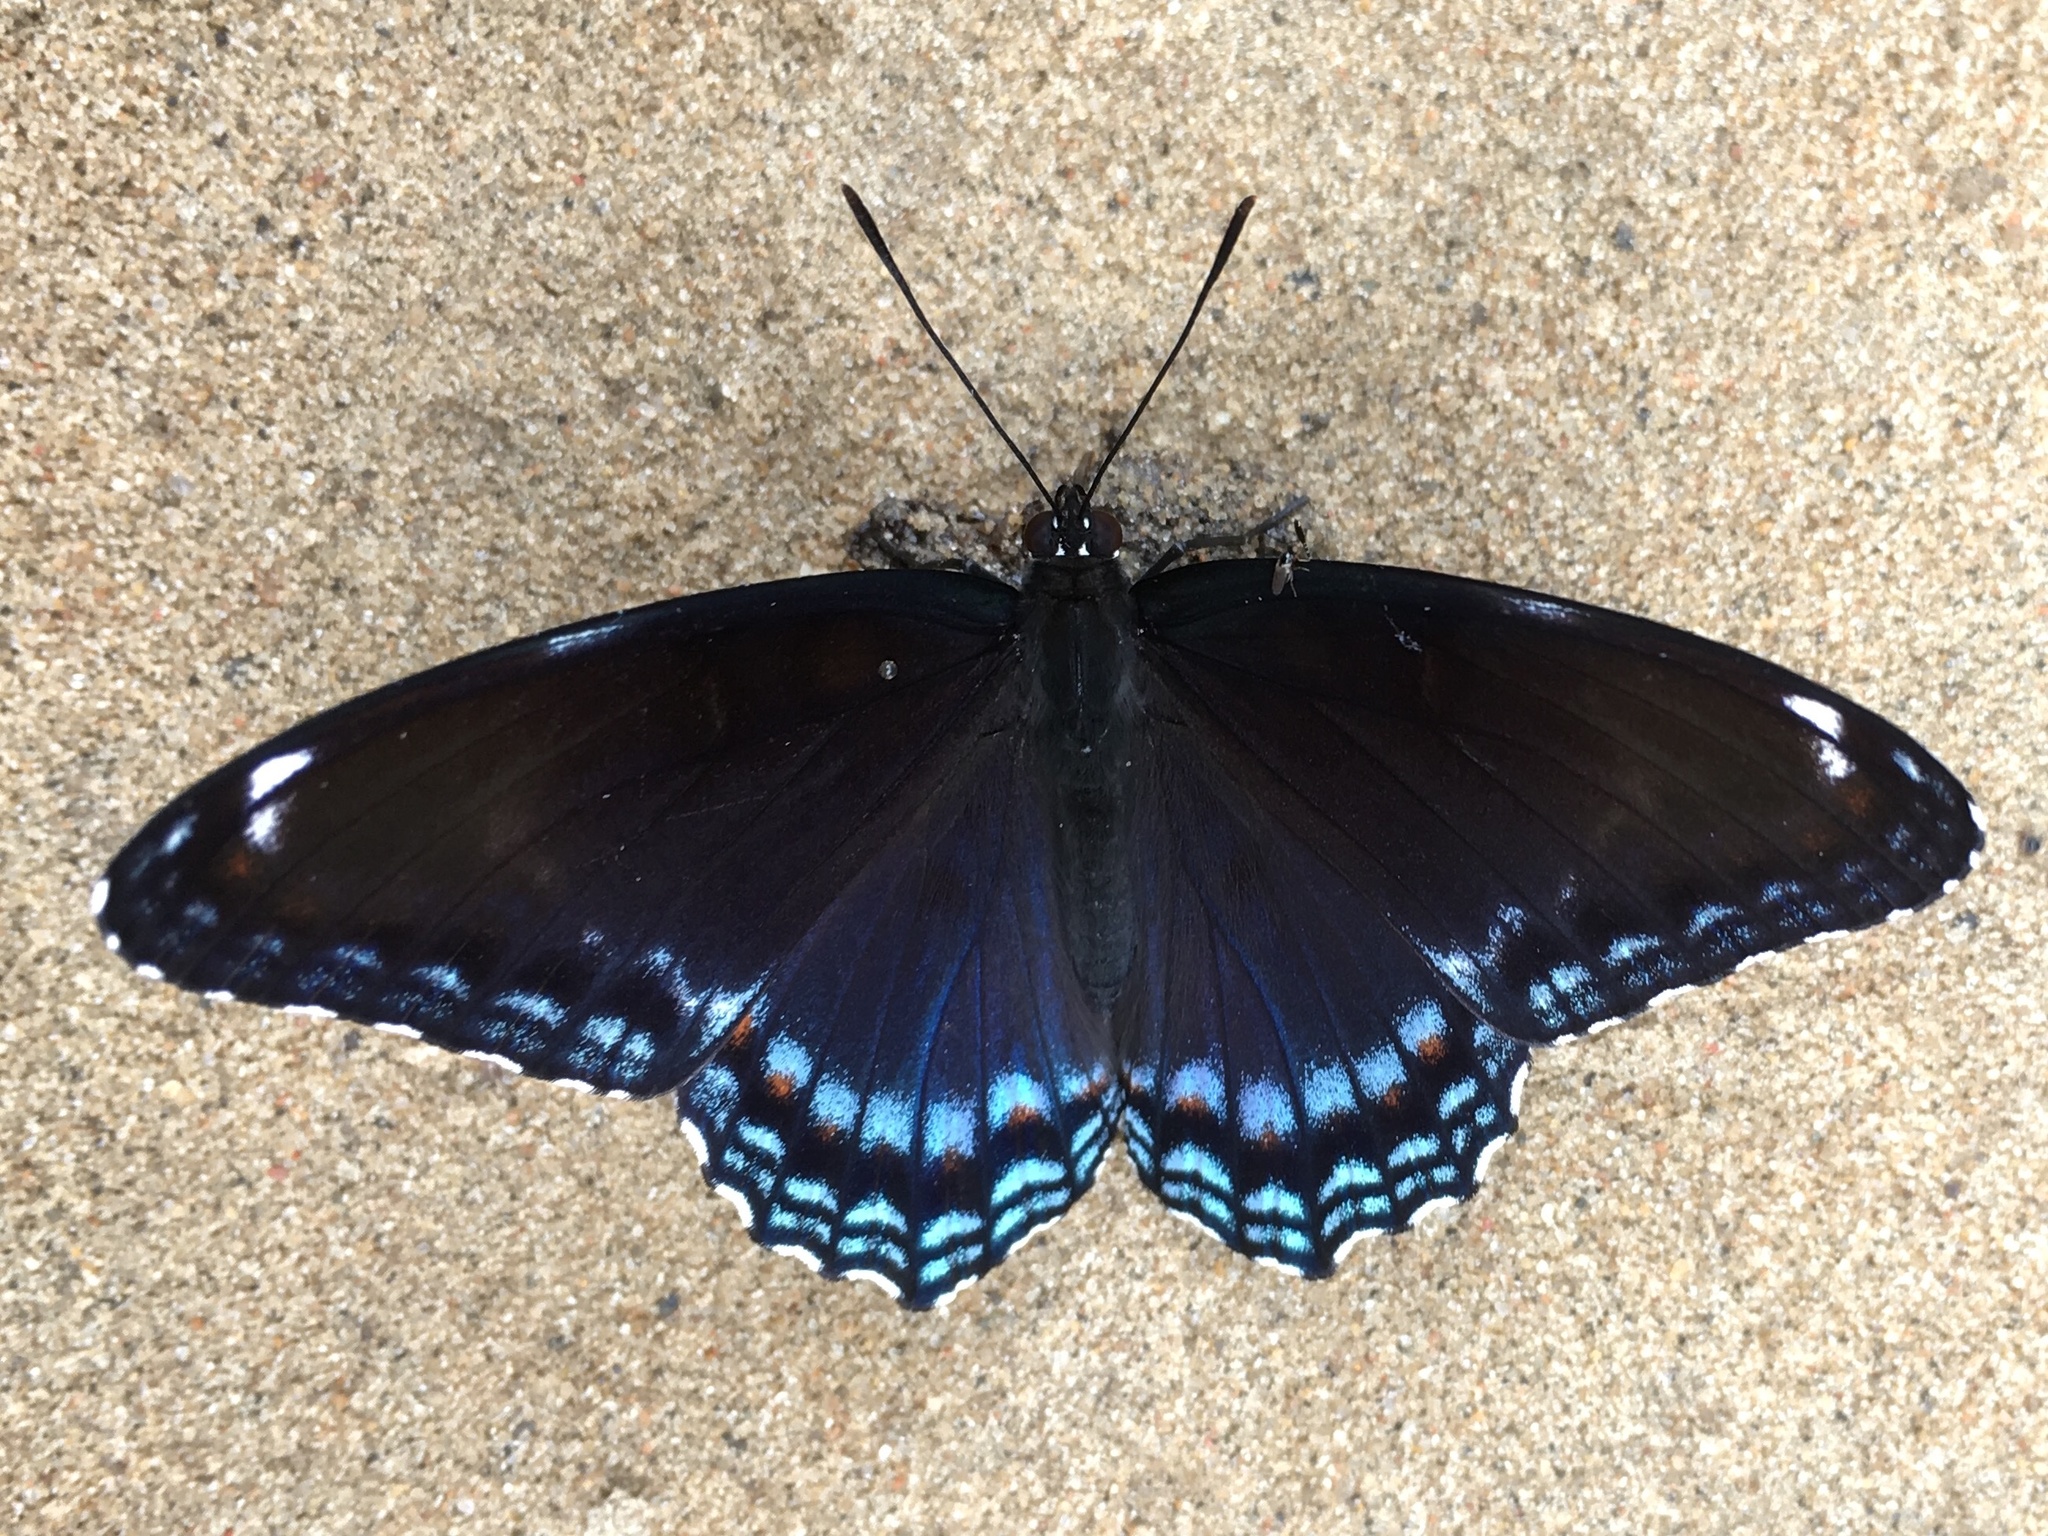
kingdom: Animalia
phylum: Arthropoda
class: Insecta
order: Lepidoptera
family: Nymphalidae
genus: Limenitis
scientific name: Limenitis astyanax
